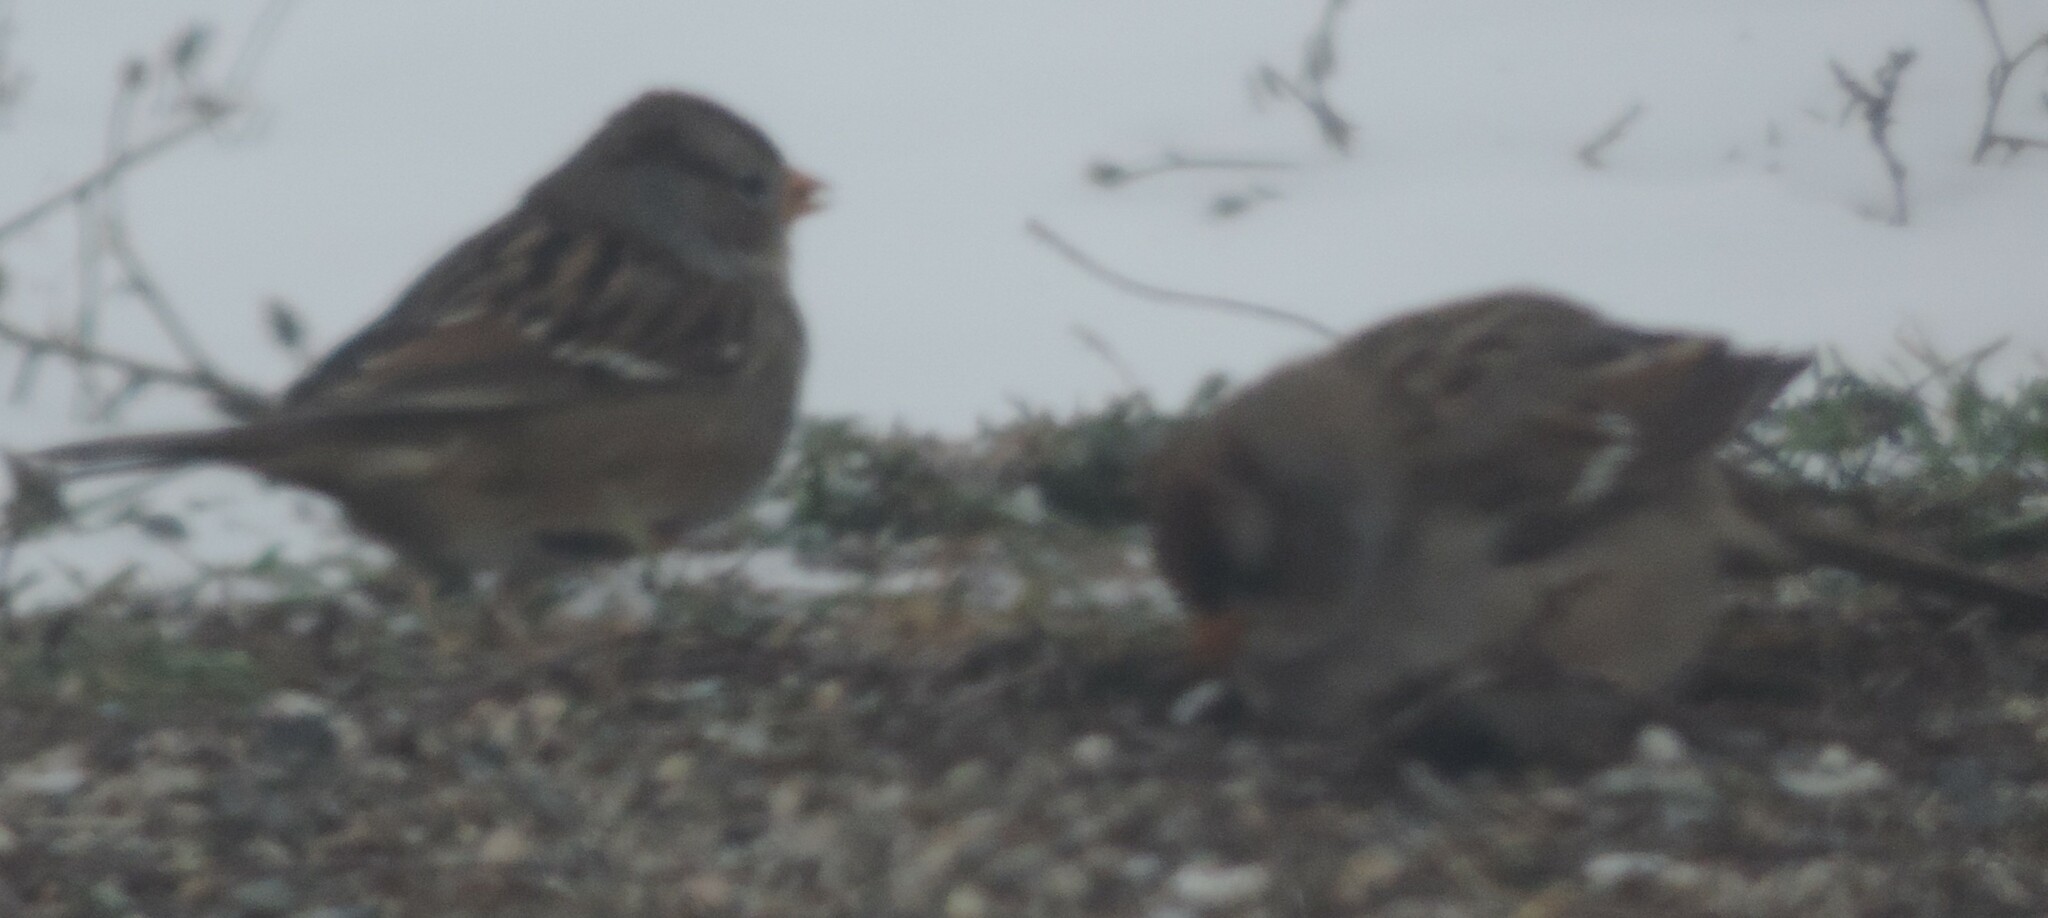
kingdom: Animalia
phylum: Chordata
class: Aves
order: Passeriformes
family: Passerellidae
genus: Zonotrichia
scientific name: Zonotrichia leucophrys
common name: White-crowned sparrow
